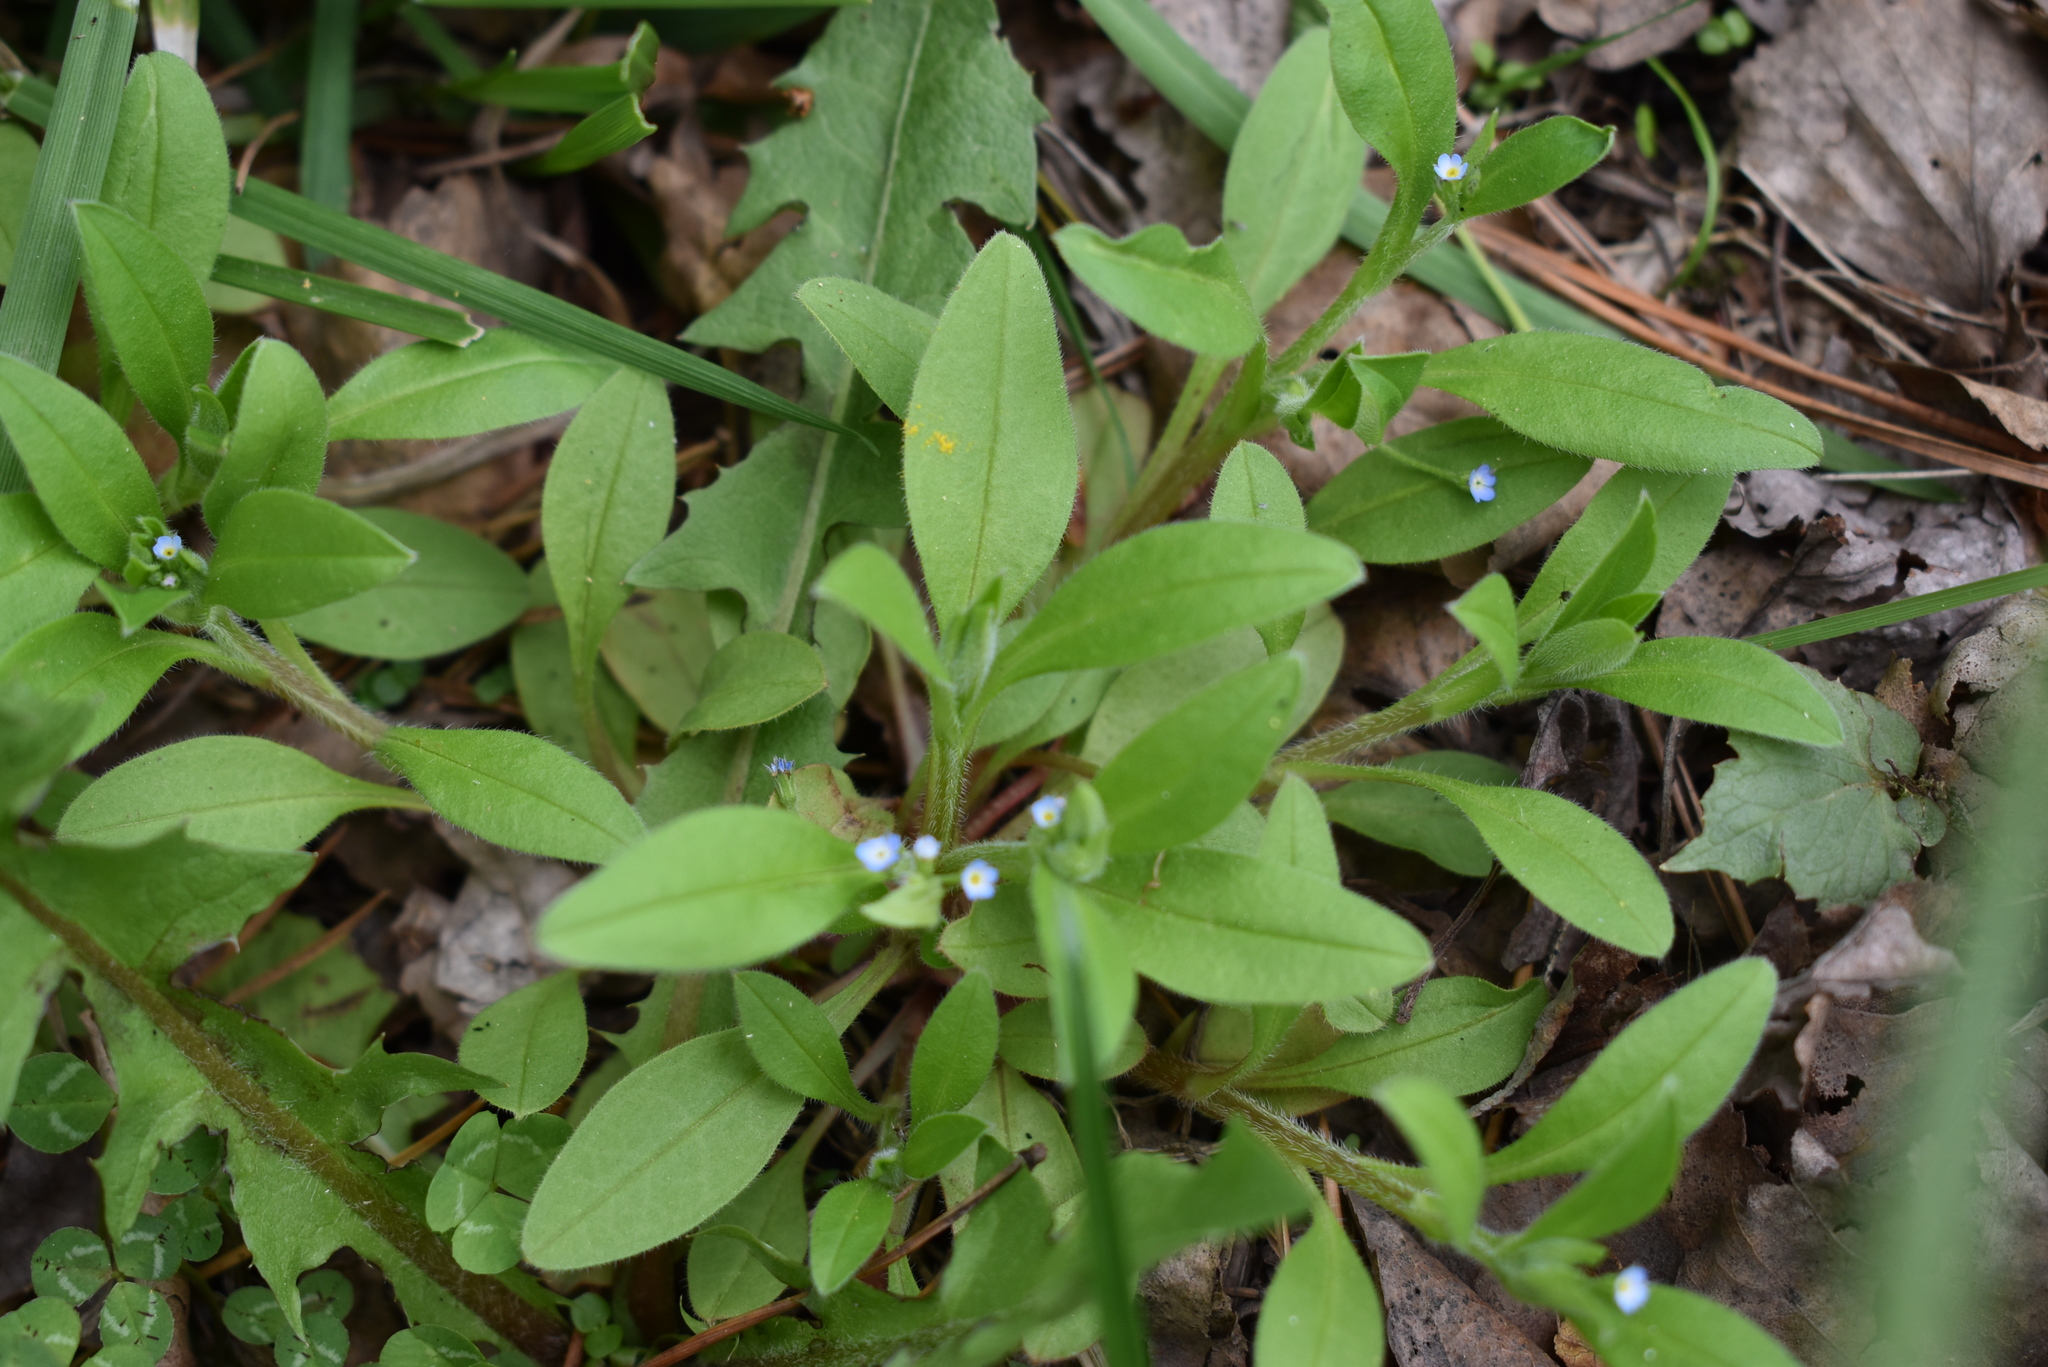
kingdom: Plantae
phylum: Tracheophyta
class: Magnoliopsida
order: Boraginales
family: Boraginaceae
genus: Myosotis
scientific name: Myosotis sparsiflora
